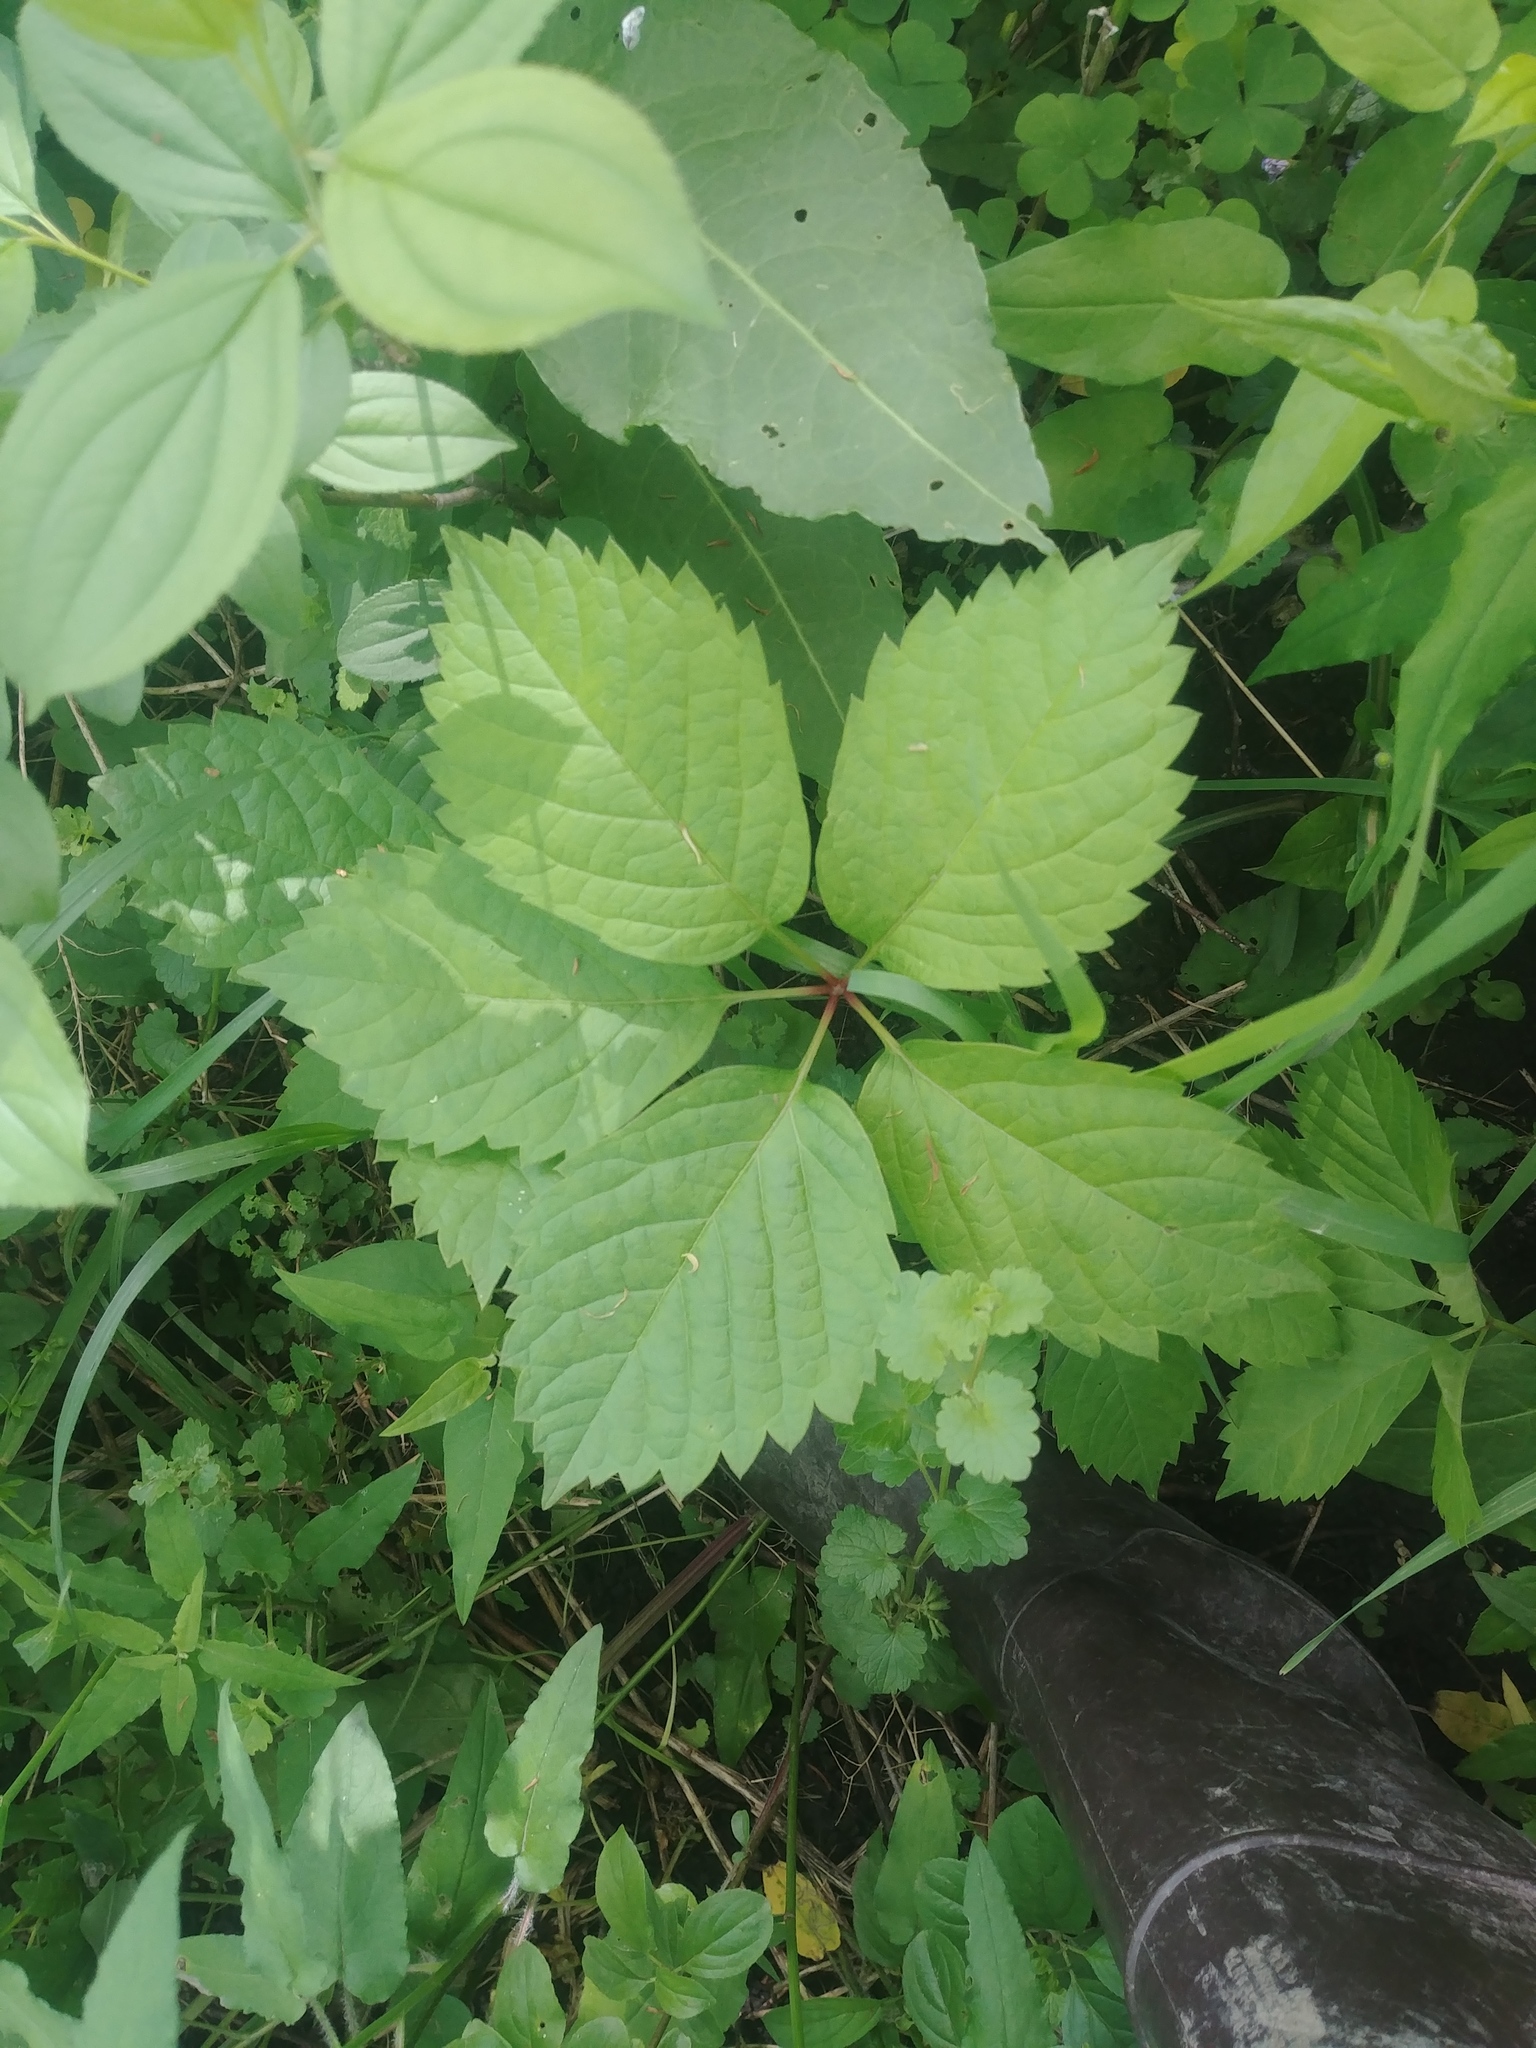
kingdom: Plantae
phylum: Tracheophyta
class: Magnoliopsida
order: Vitales
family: Vitaceae
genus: Parthenocissus
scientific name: Parthenocissus quinquefolia
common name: Virginia-creeper
